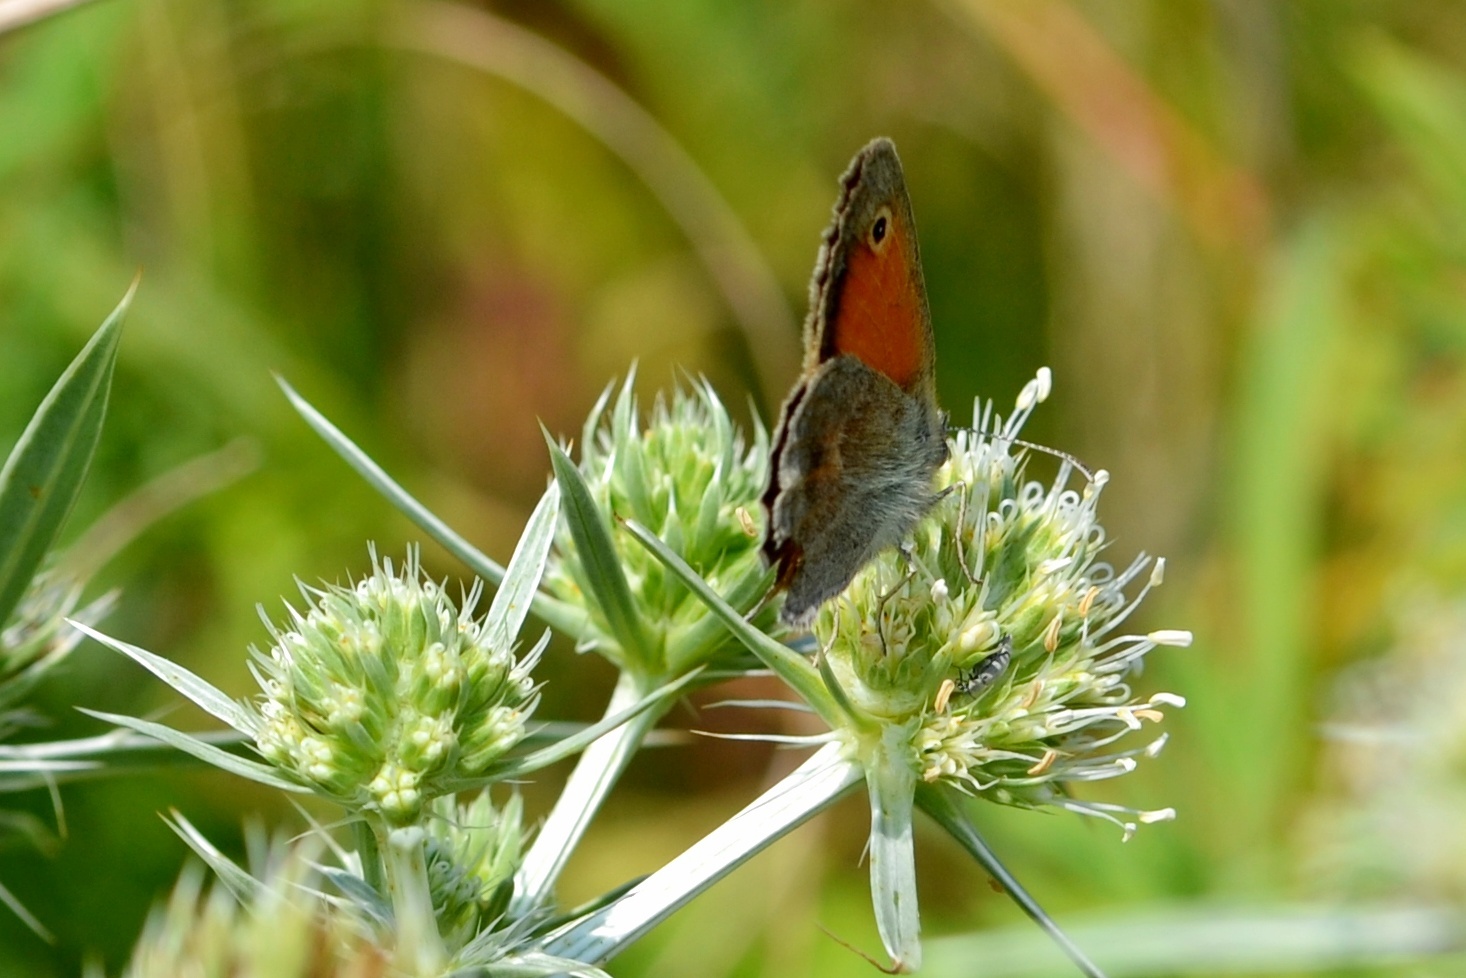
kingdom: Animalia
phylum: Arthropoda
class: Insecta
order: Lepidoptera
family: Nymphalidae
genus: Coenonympha
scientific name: Coenonympha pamphilus
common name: Small heath
